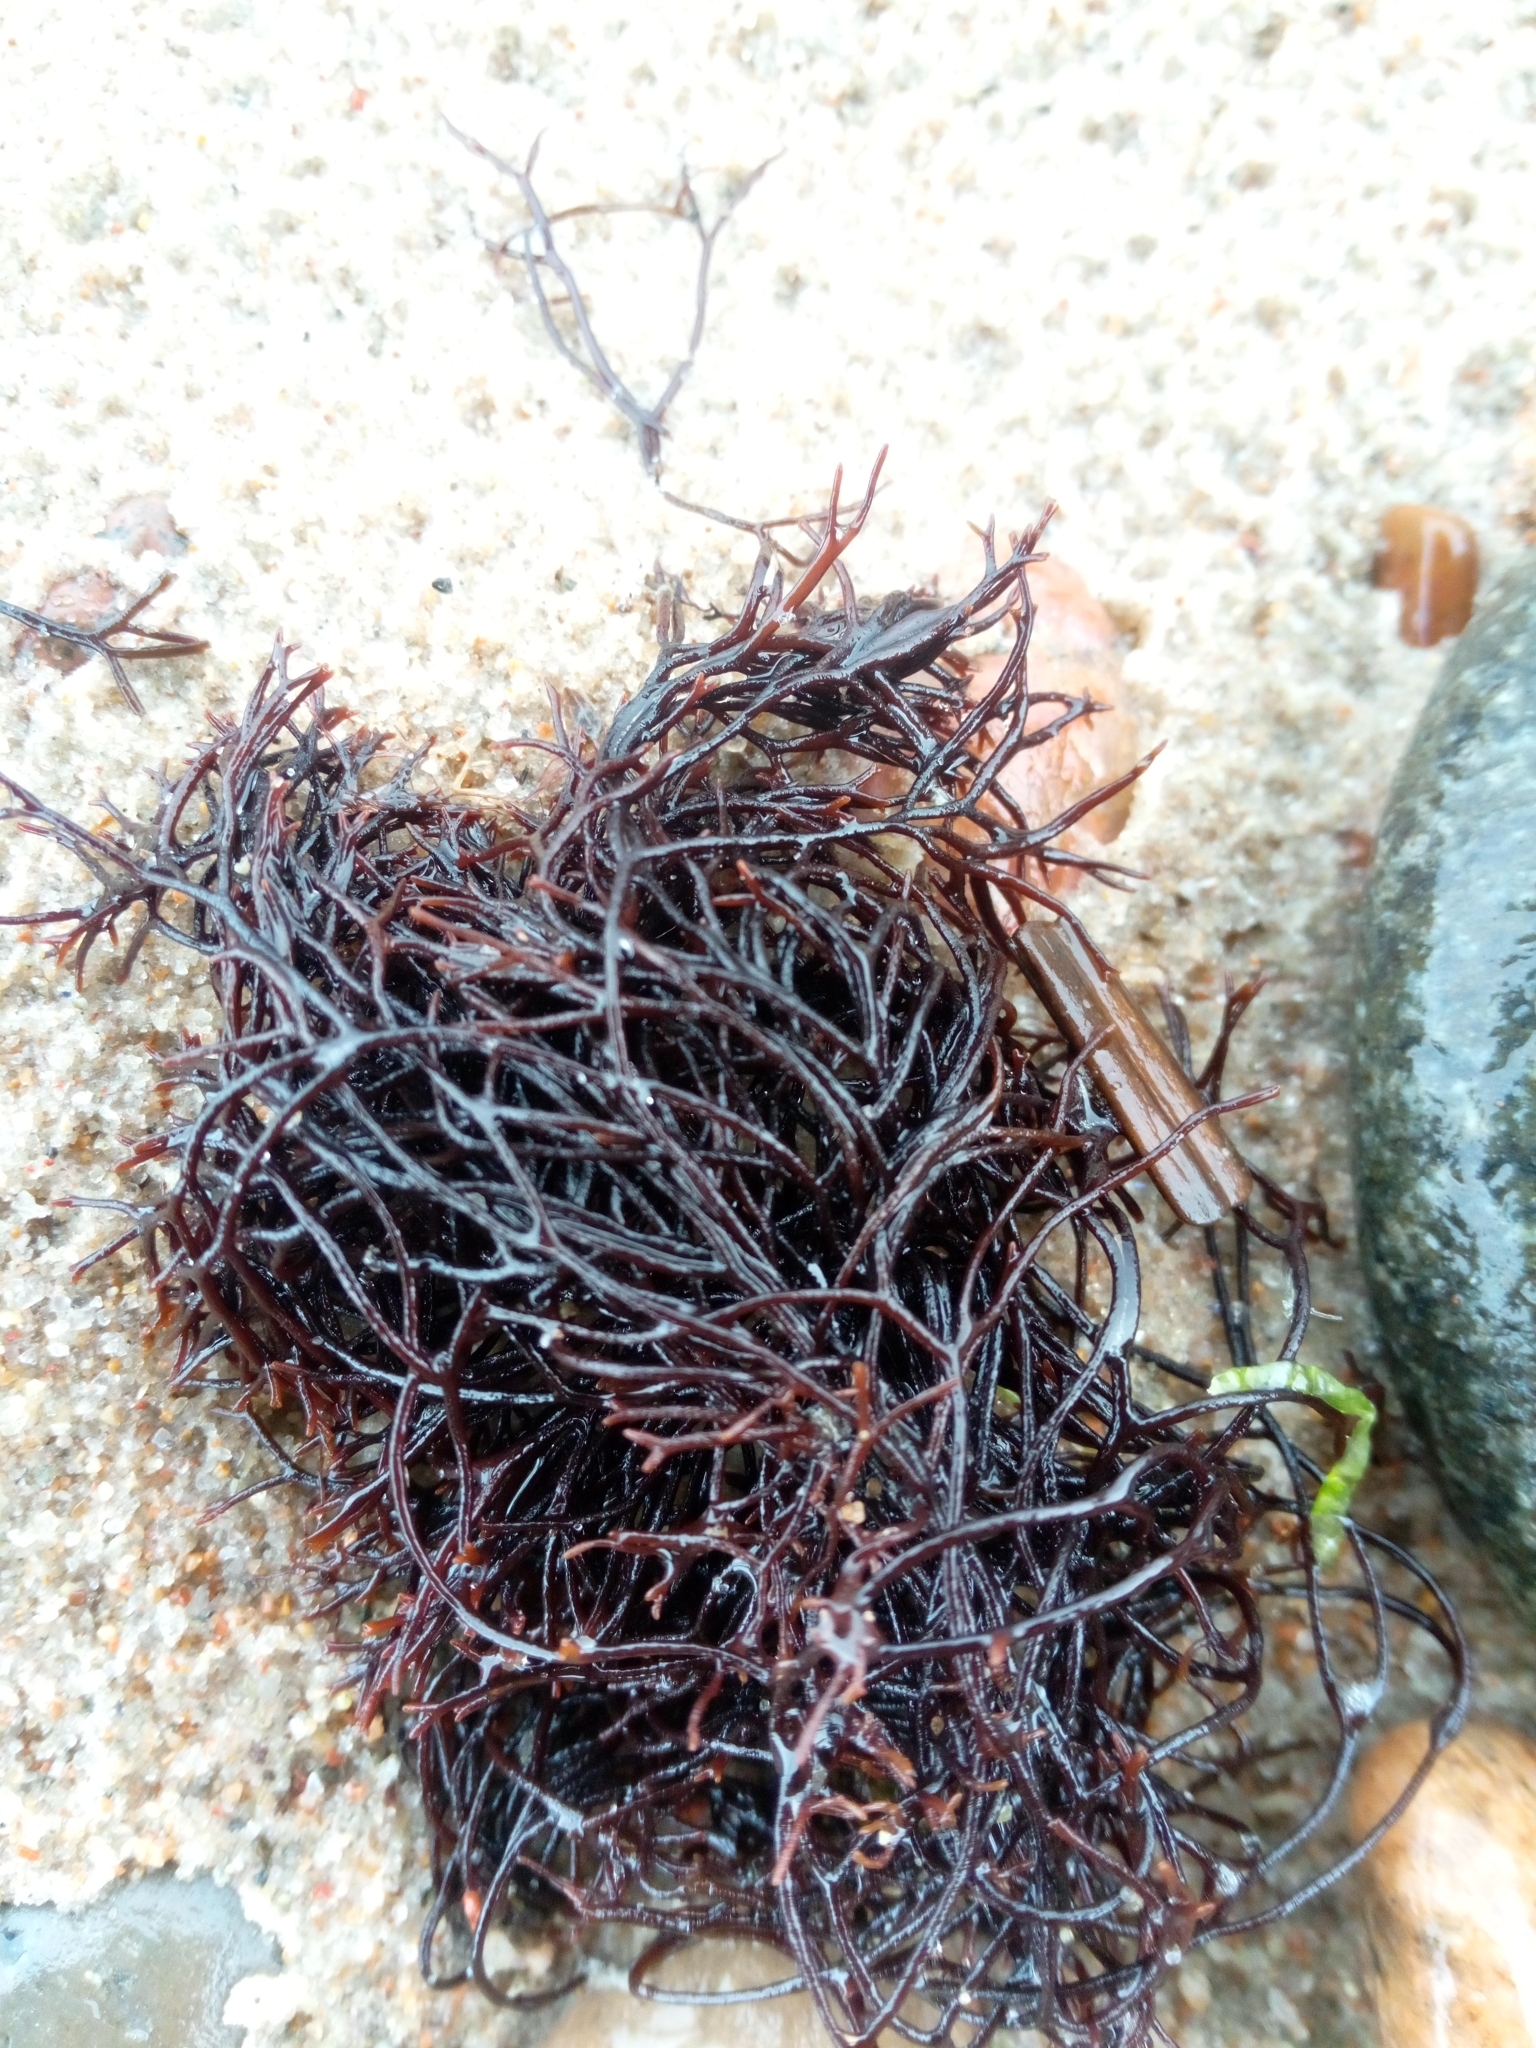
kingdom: Plantae
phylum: Rhodophyta
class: Florideophyceae
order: Gigartinales
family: Furcellariaceae
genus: Furcellaria
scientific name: Furcellaria lumbricalis
